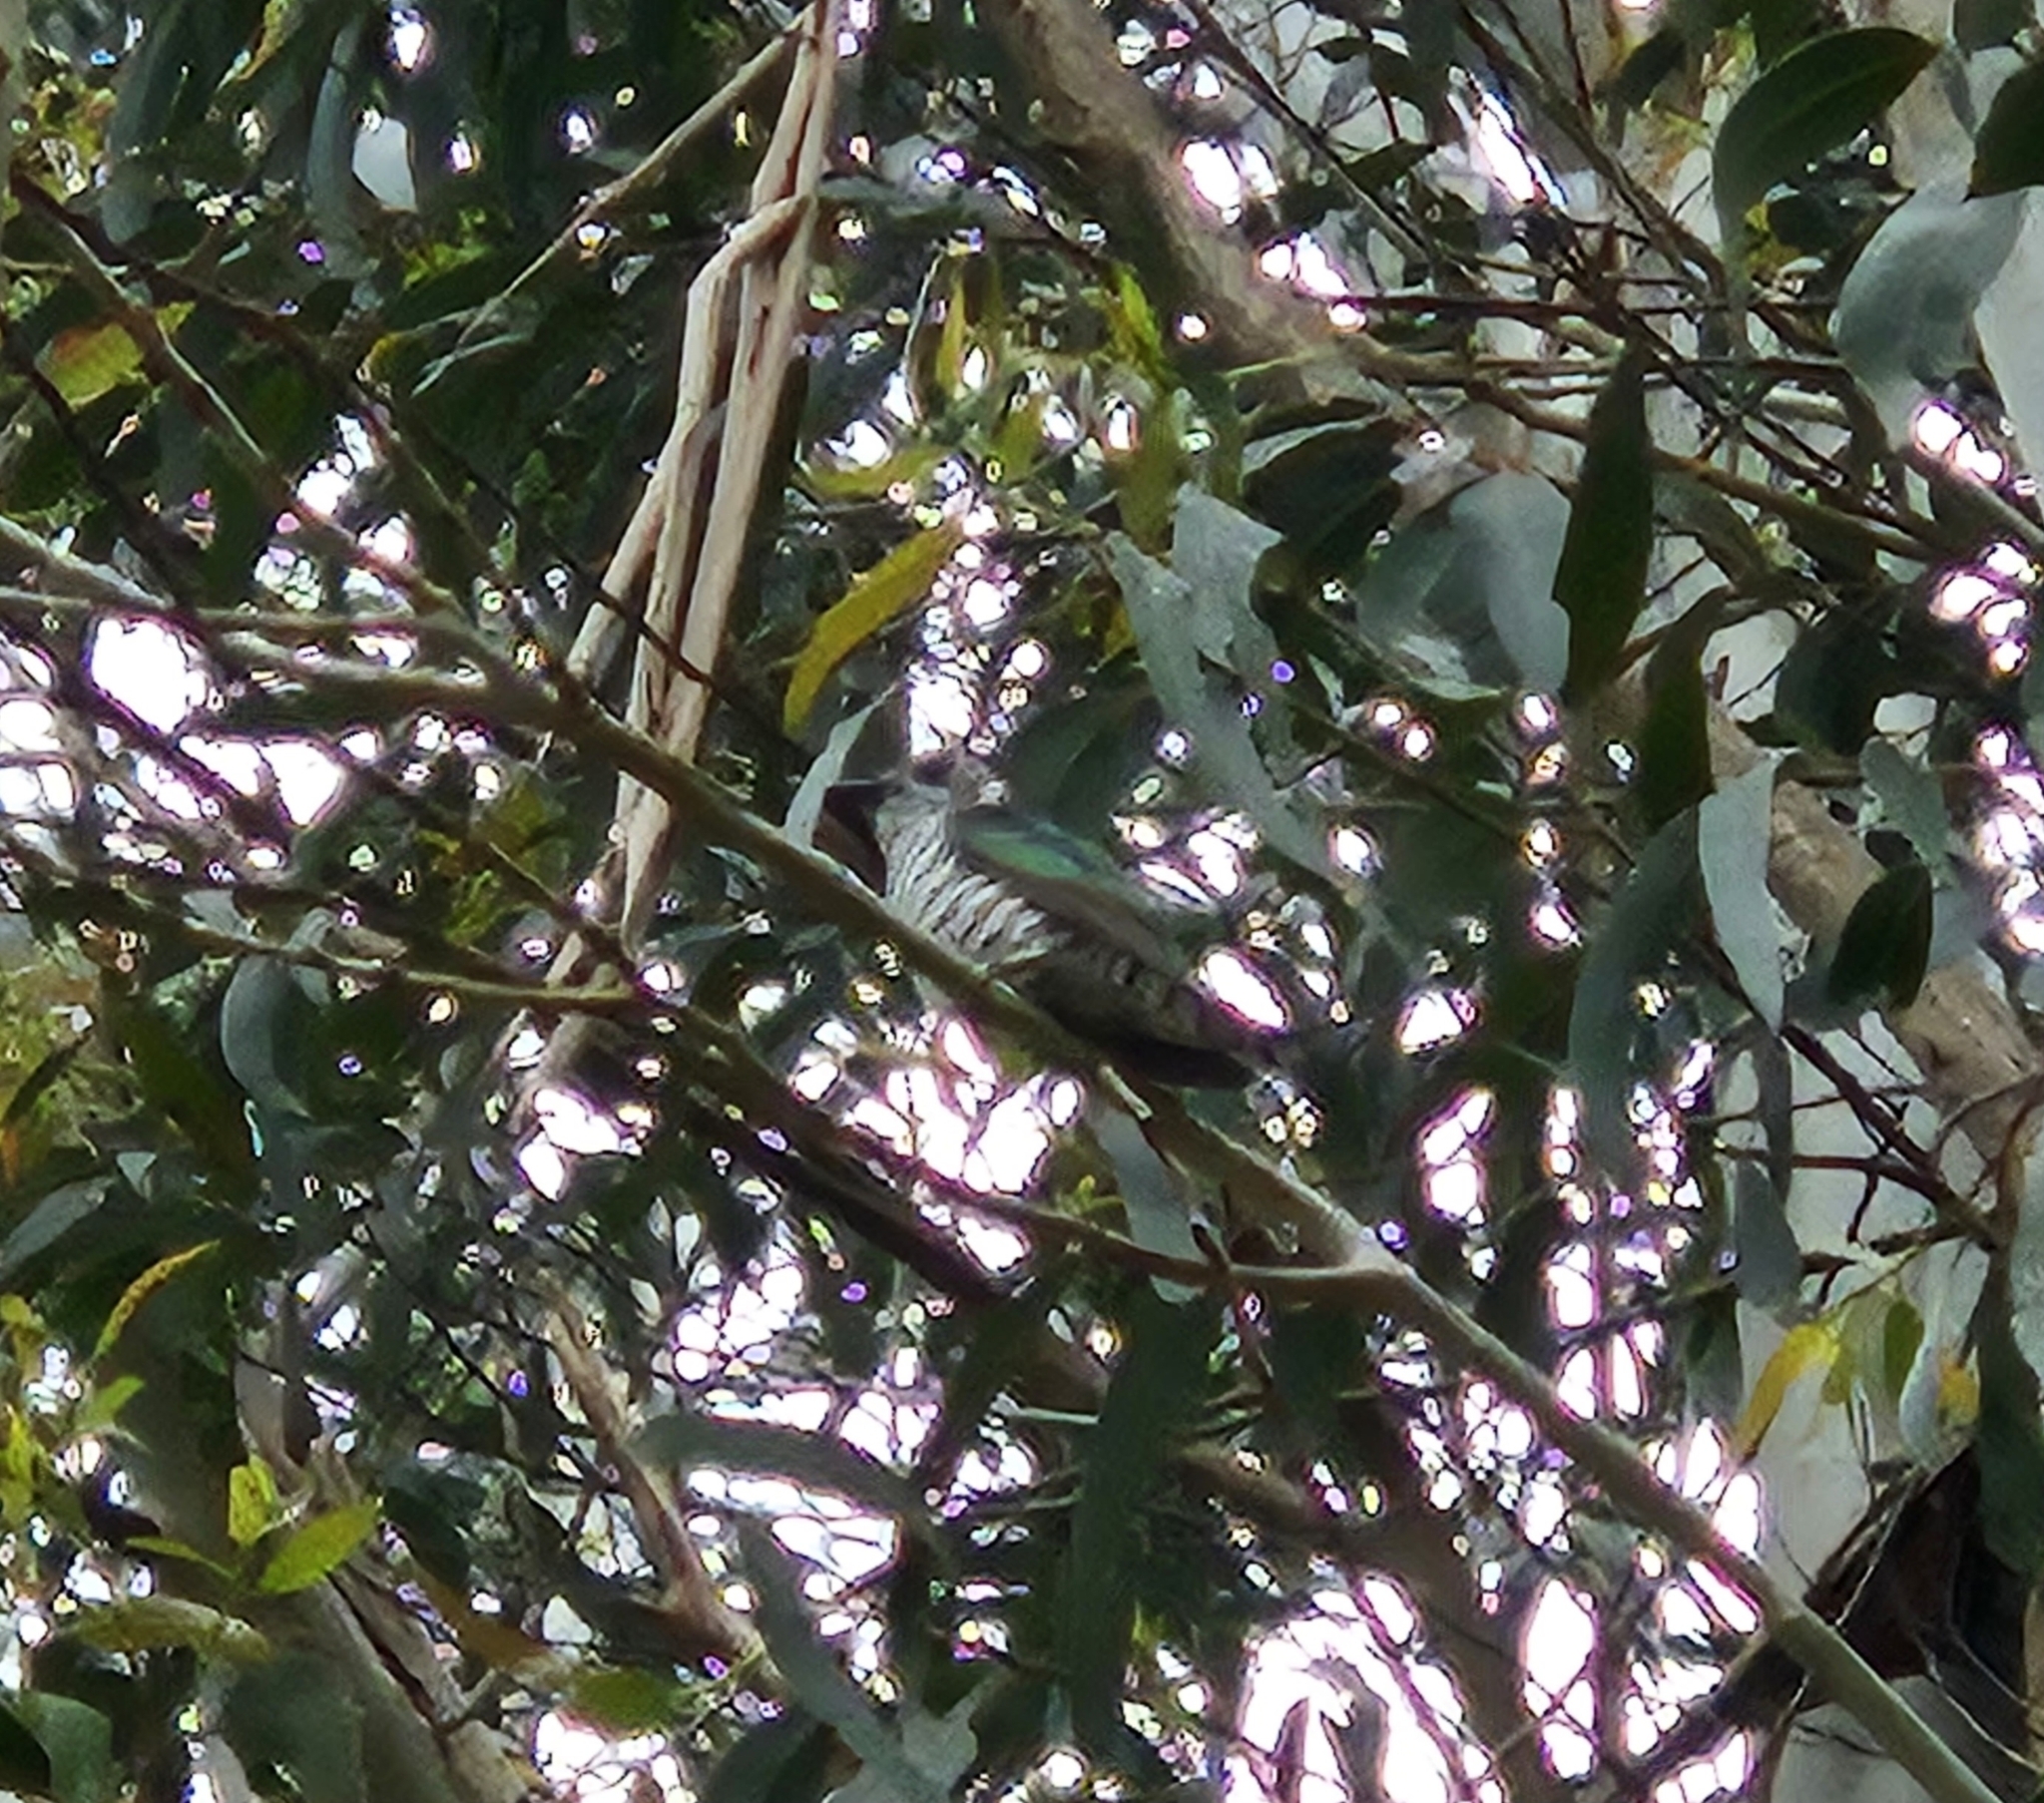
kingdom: Animalia
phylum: Chordata
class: Aves
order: Cuculiformes
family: Cuculidae
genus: Chrysococcyx
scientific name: Chrysococcyx lucidus
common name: Shining bronze cuckoo
